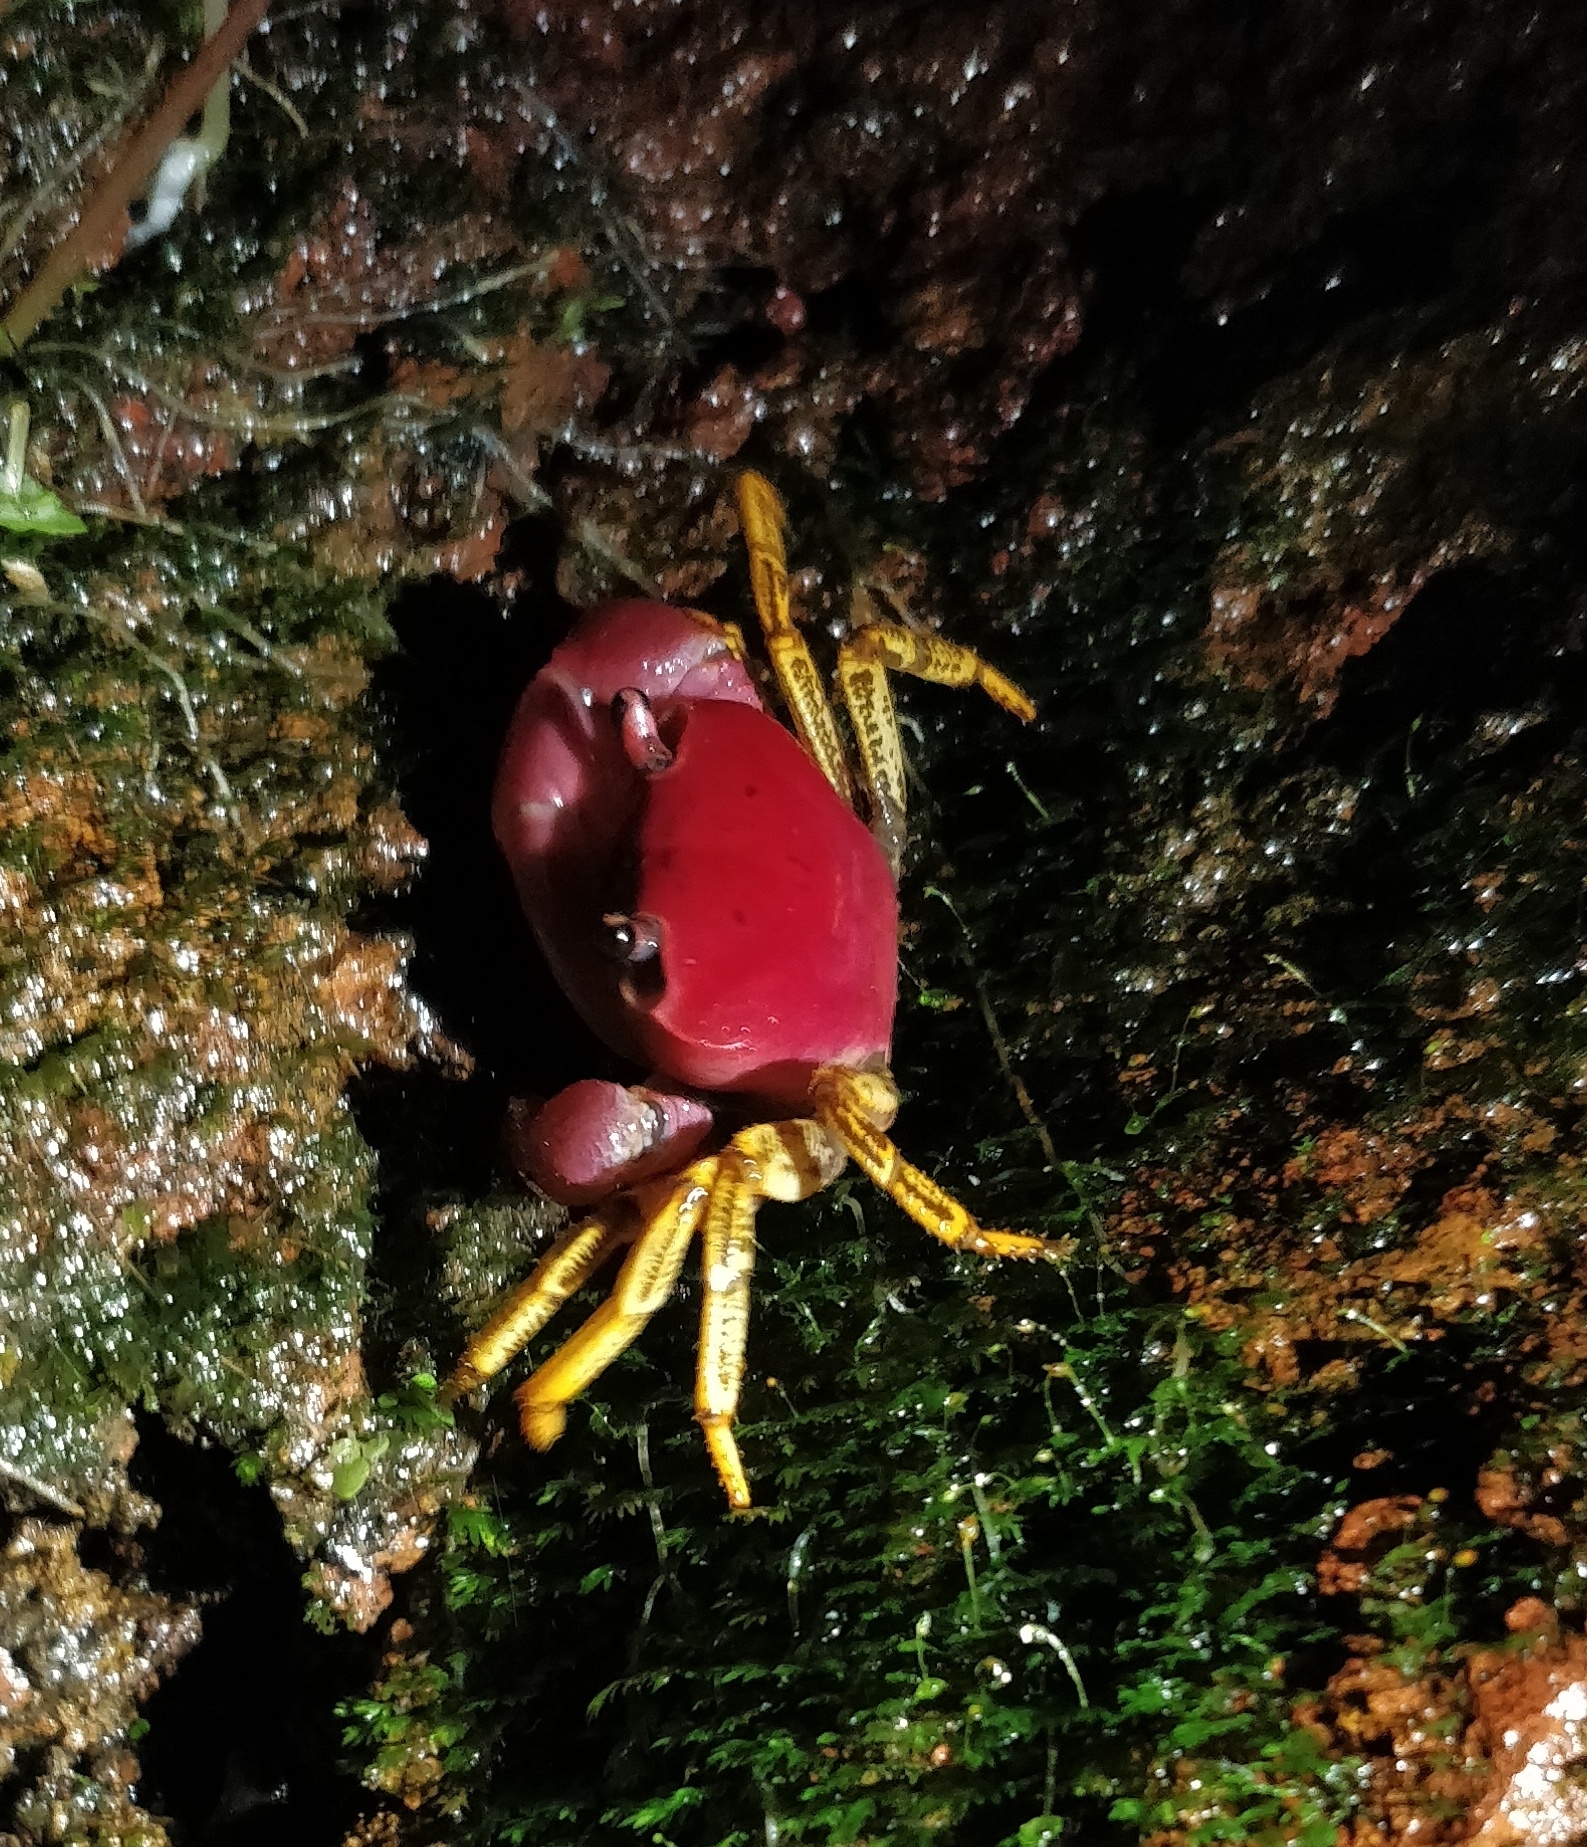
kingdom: Animalia
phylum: Arthropoda
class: Malacostraca
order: Decapoda
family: Gecarcinucidae
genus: Ghatiana
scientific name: Ghatiana splendida
